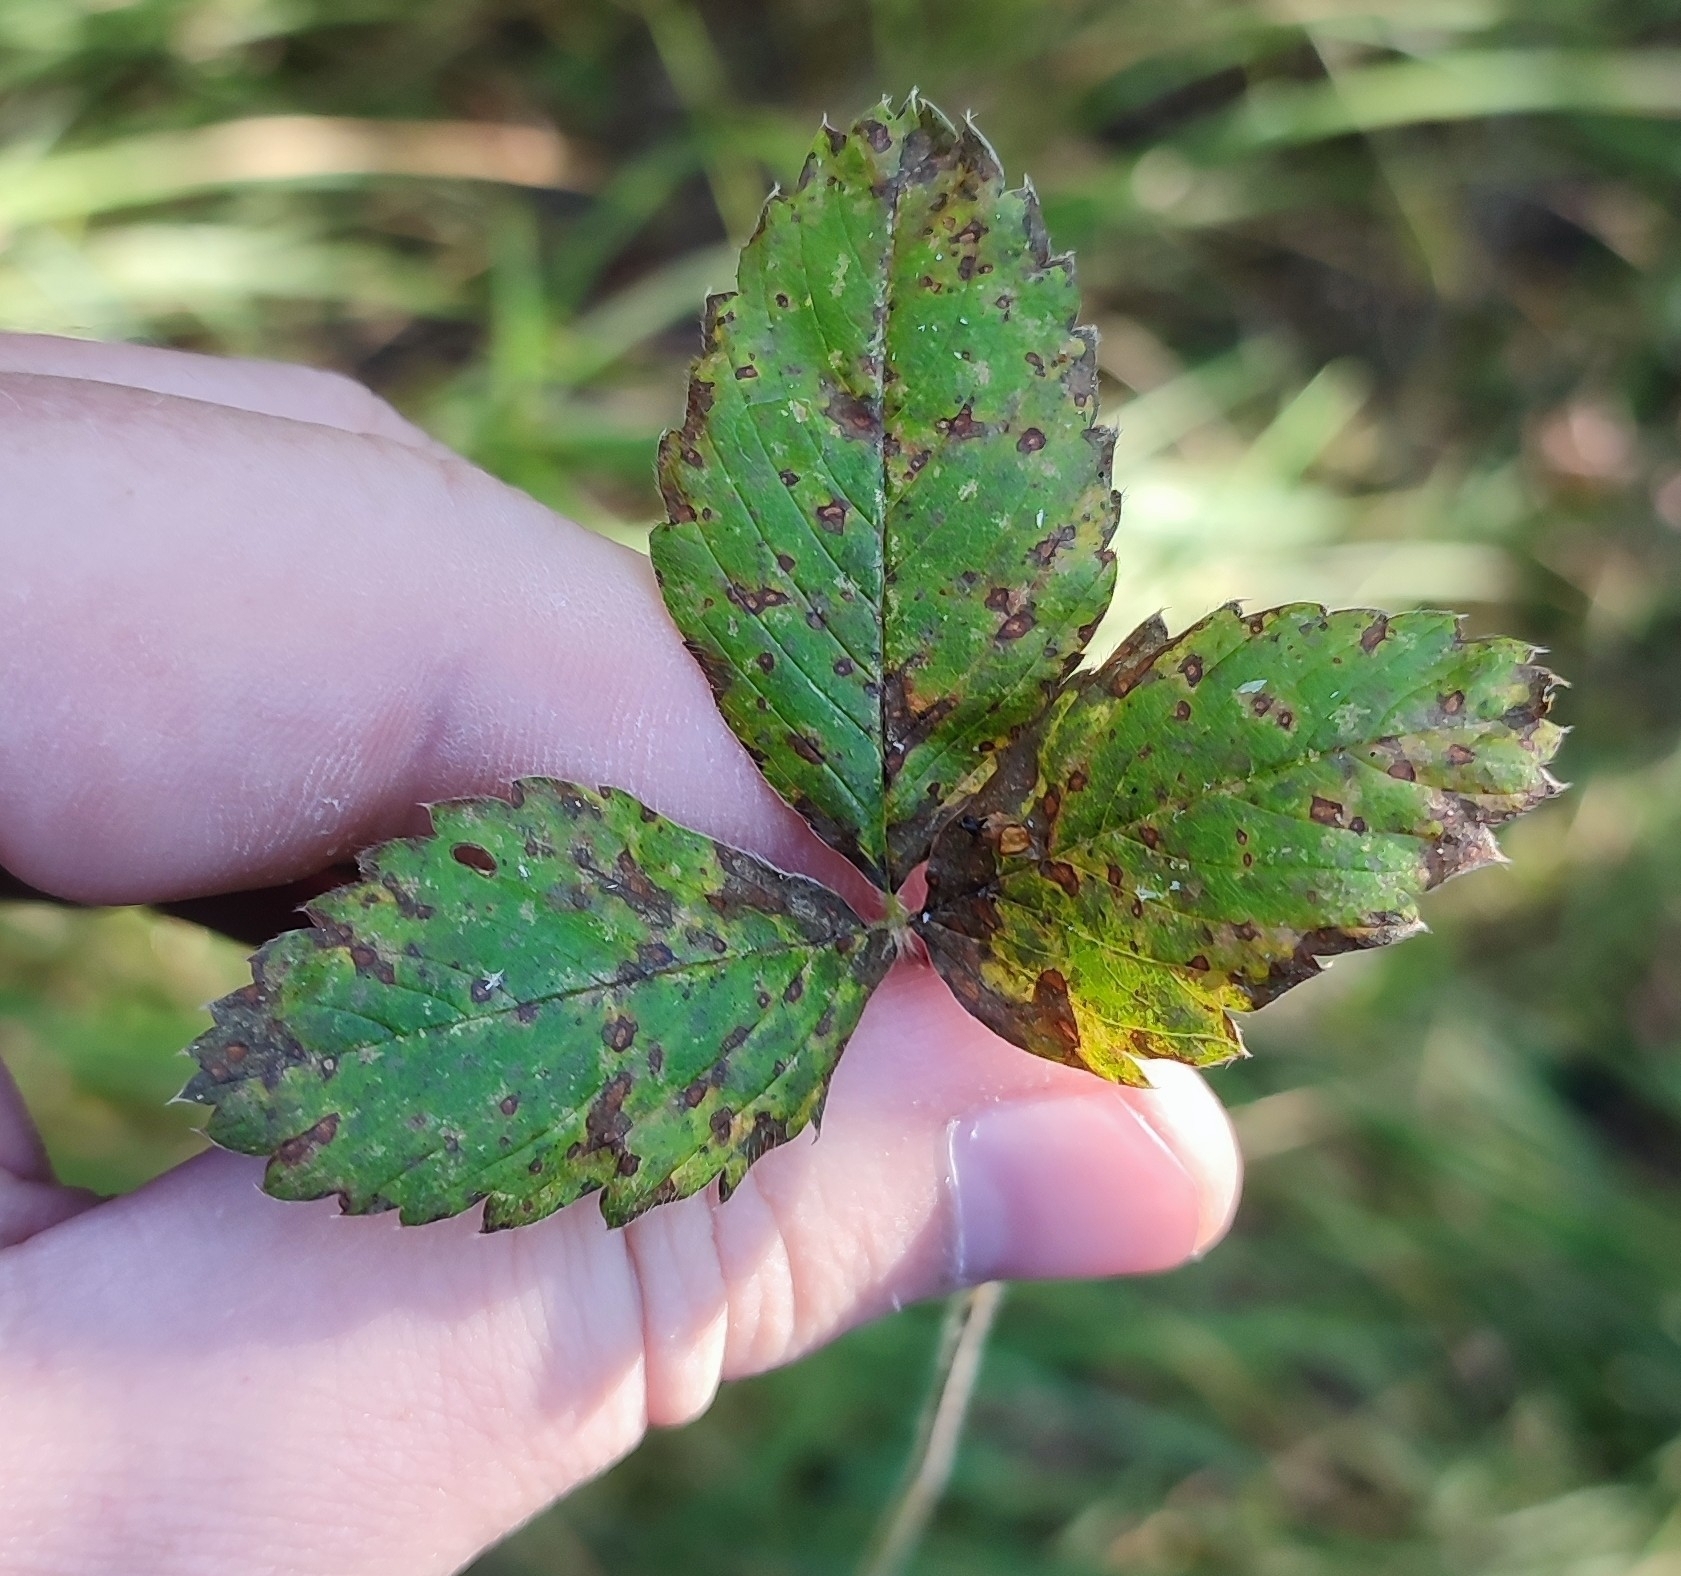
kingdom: Plantae
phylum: Tracheophyta
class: Magnoliopsida
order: Rosales
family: Rosaceae
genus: Fragaria
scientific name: Fragaria viridis
